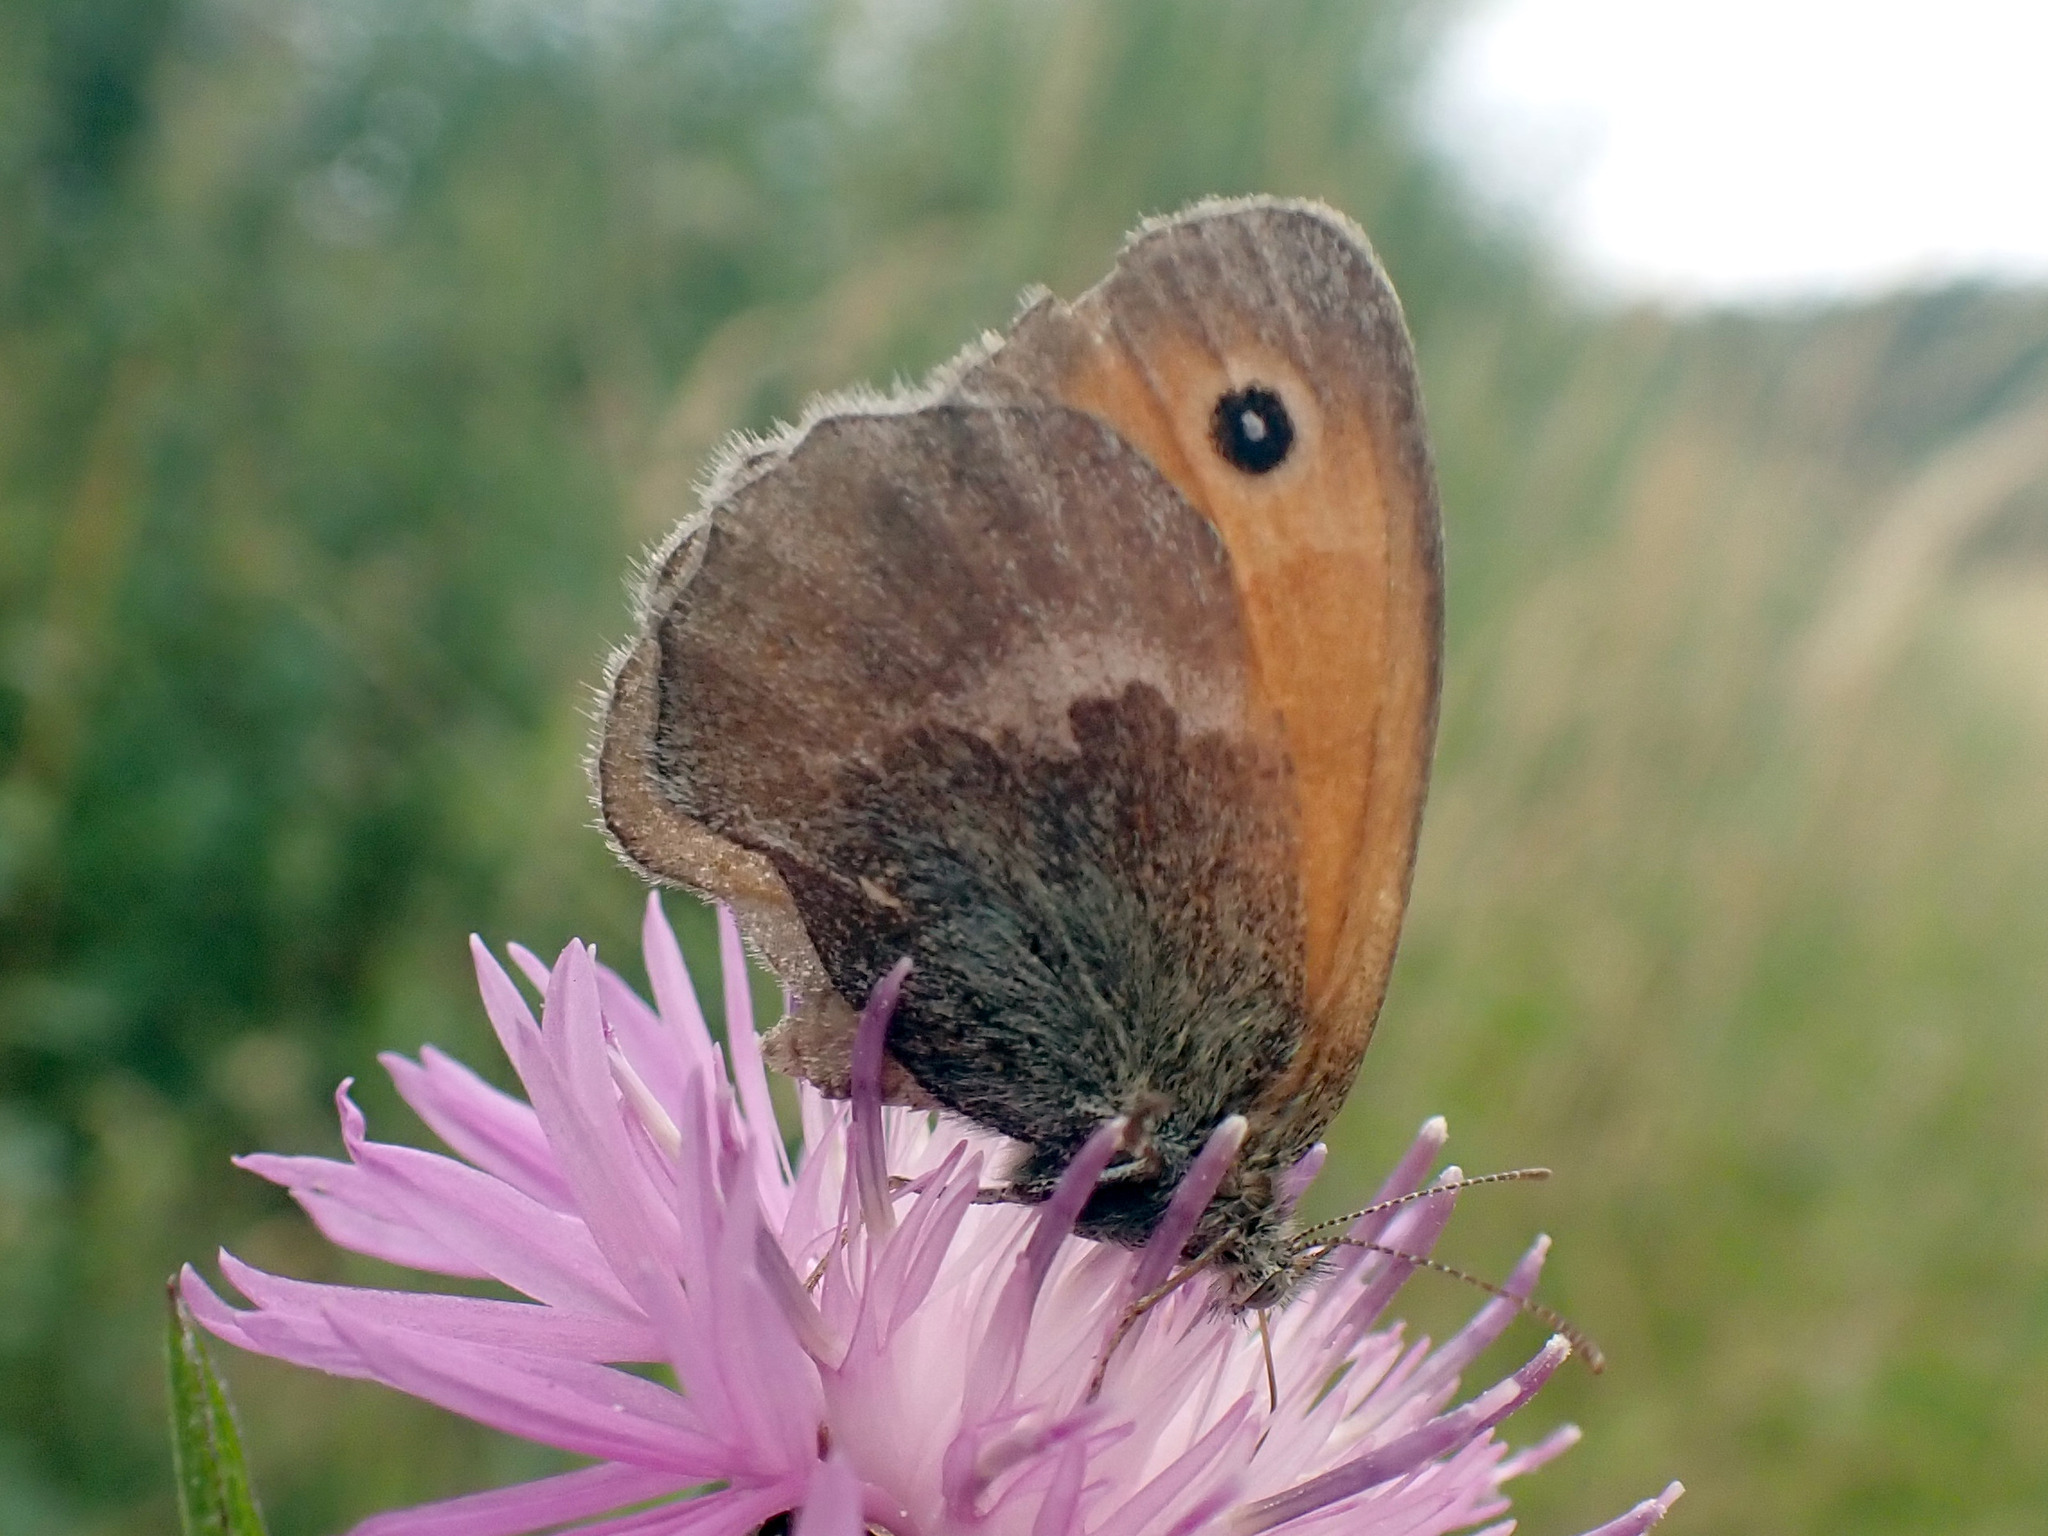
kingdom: Animalia
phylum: Arthropoda
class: Insecta
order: Lepidoptera
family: Nymphalidae
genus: Coenonympha
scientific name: Coenonympha pamphilus
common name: Small heath
